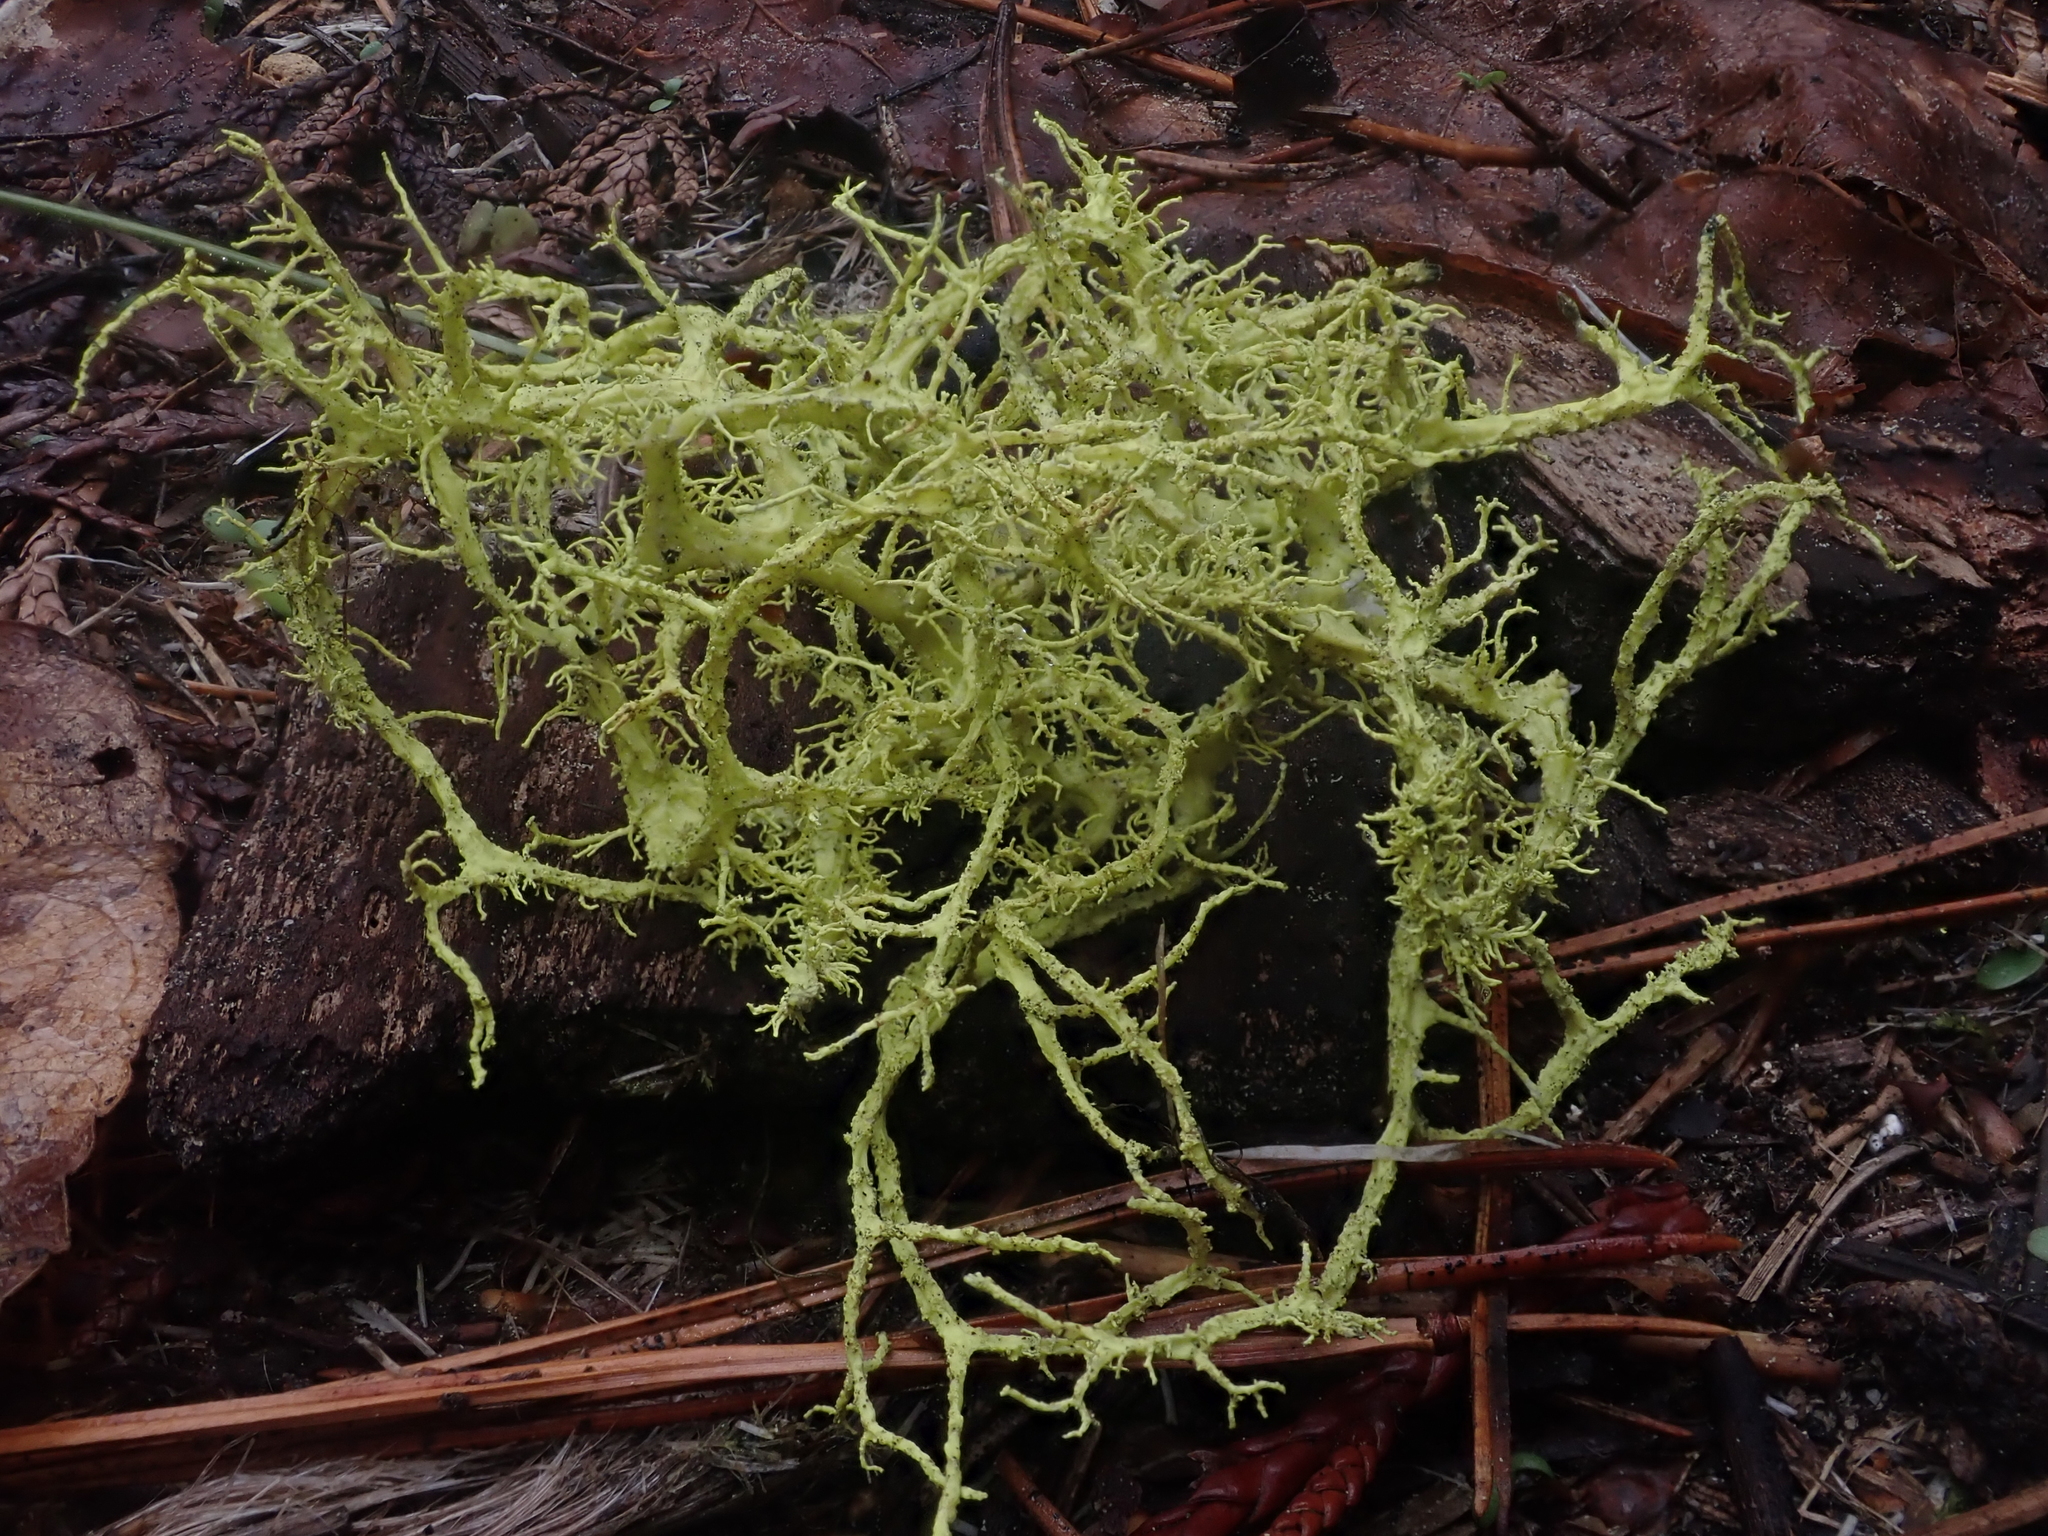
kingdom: Fungi
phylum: Ascomycota
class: Lecanoromycetes
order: Lecanorales
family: Parmeliaceae
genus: Letharia
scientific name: Letharia vulpina
